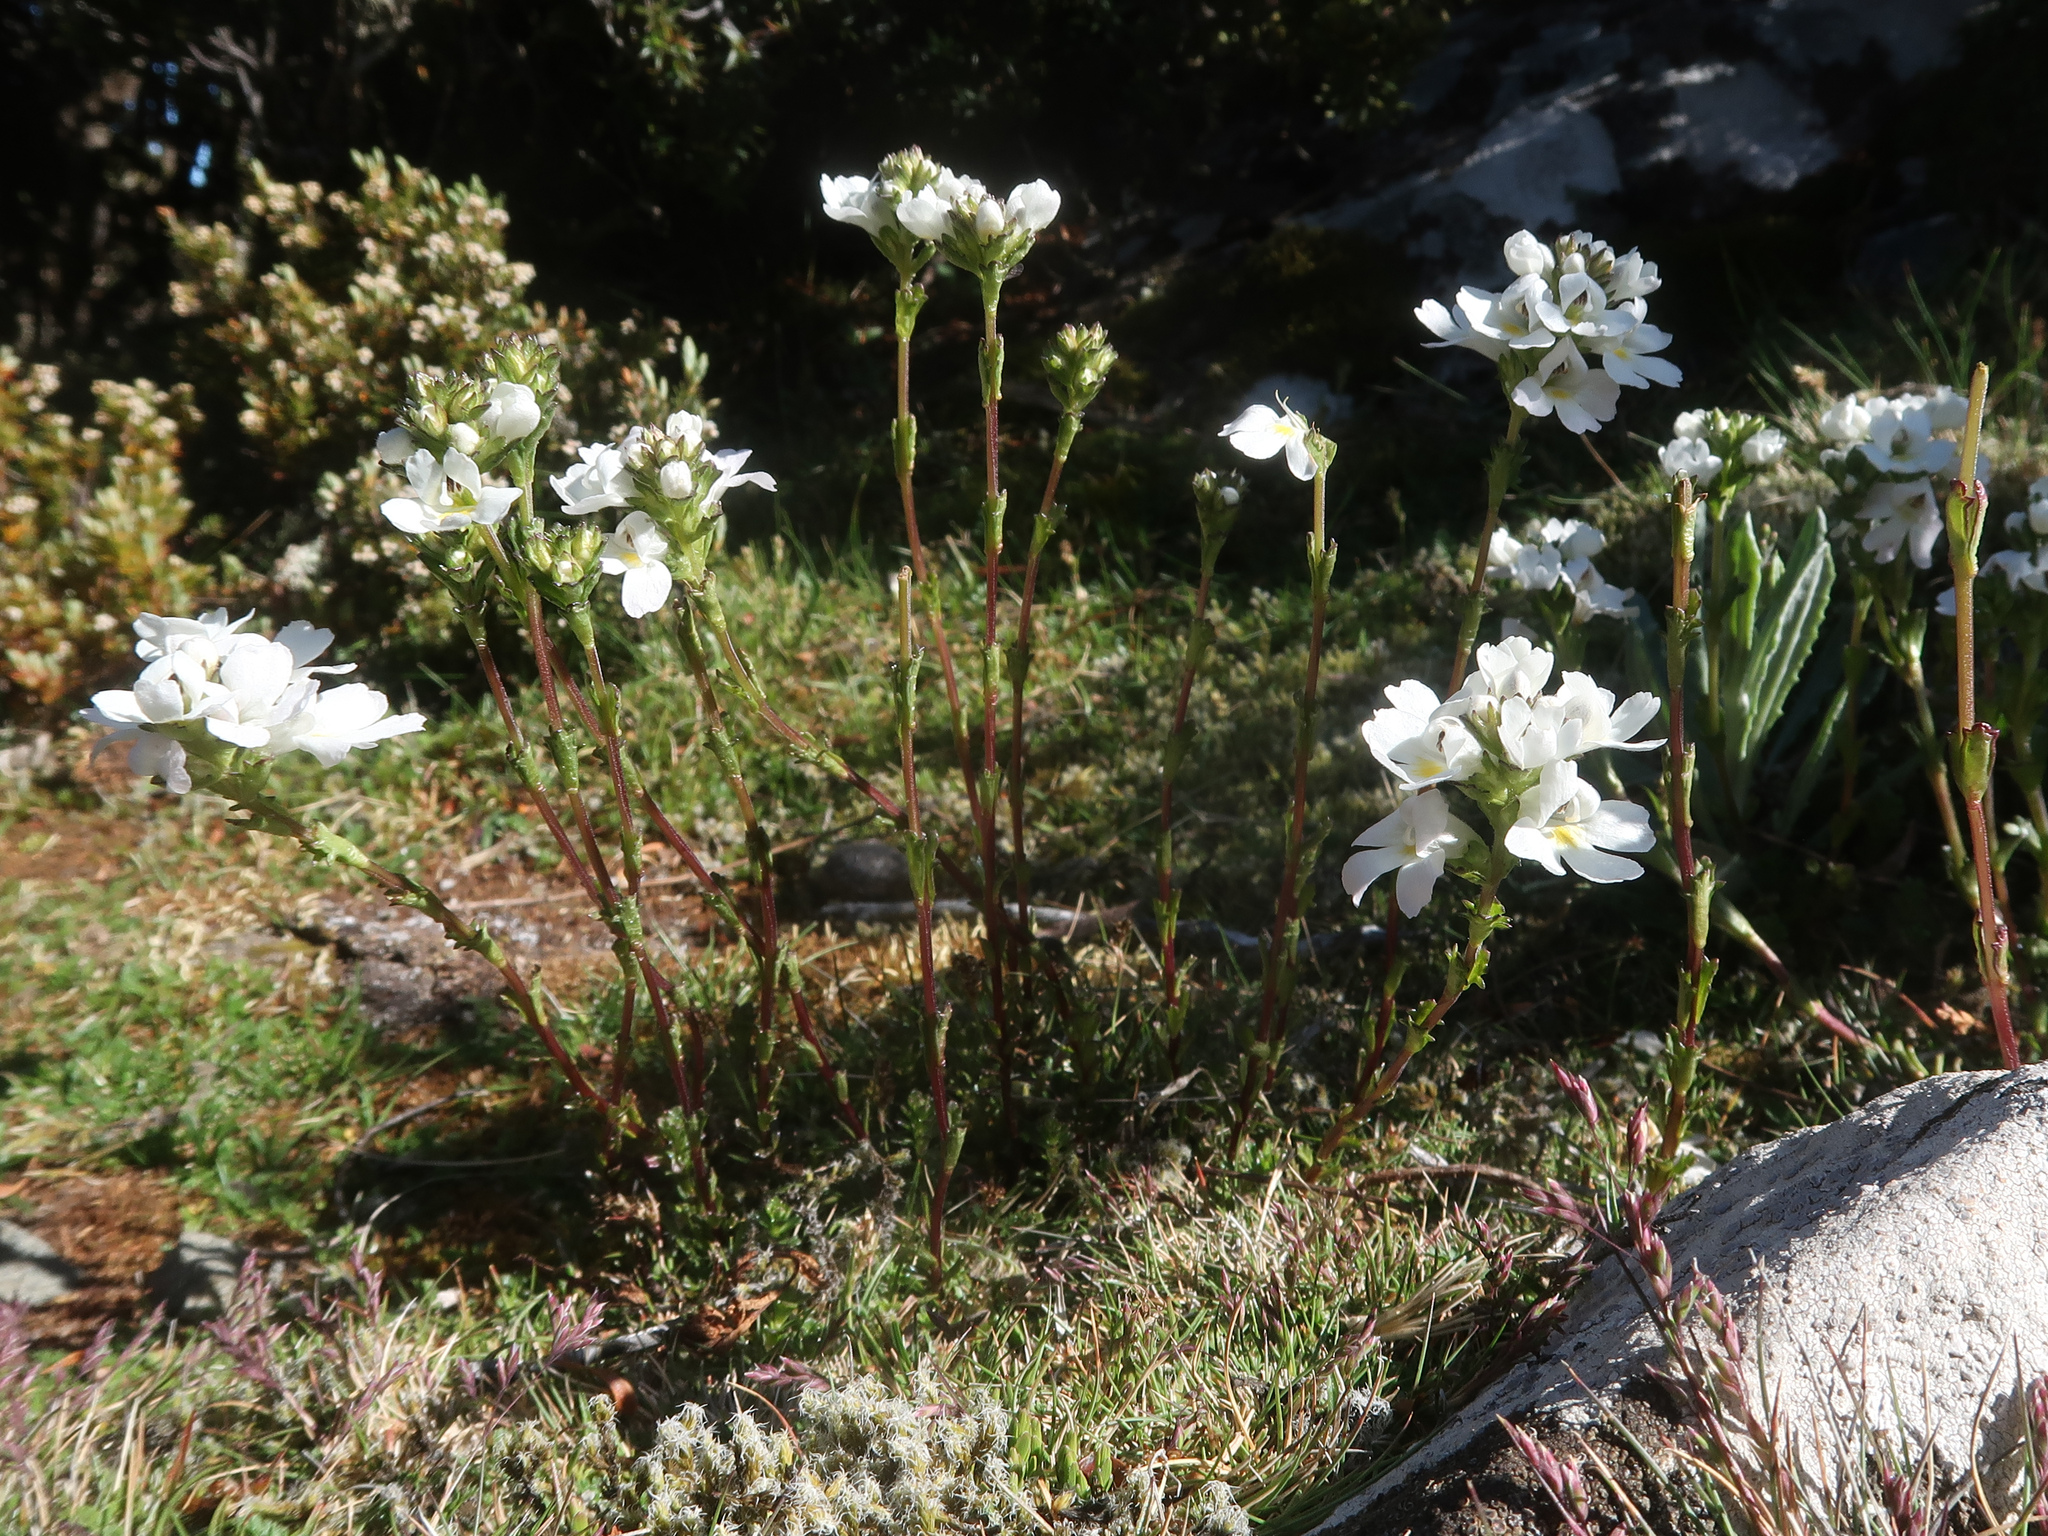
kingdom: Plantae
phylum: Tracheophyta
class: Magnoliopsida
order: Lamiales
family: Orobanchaceae
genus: Euphrasia
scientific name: Euphrasia collina
